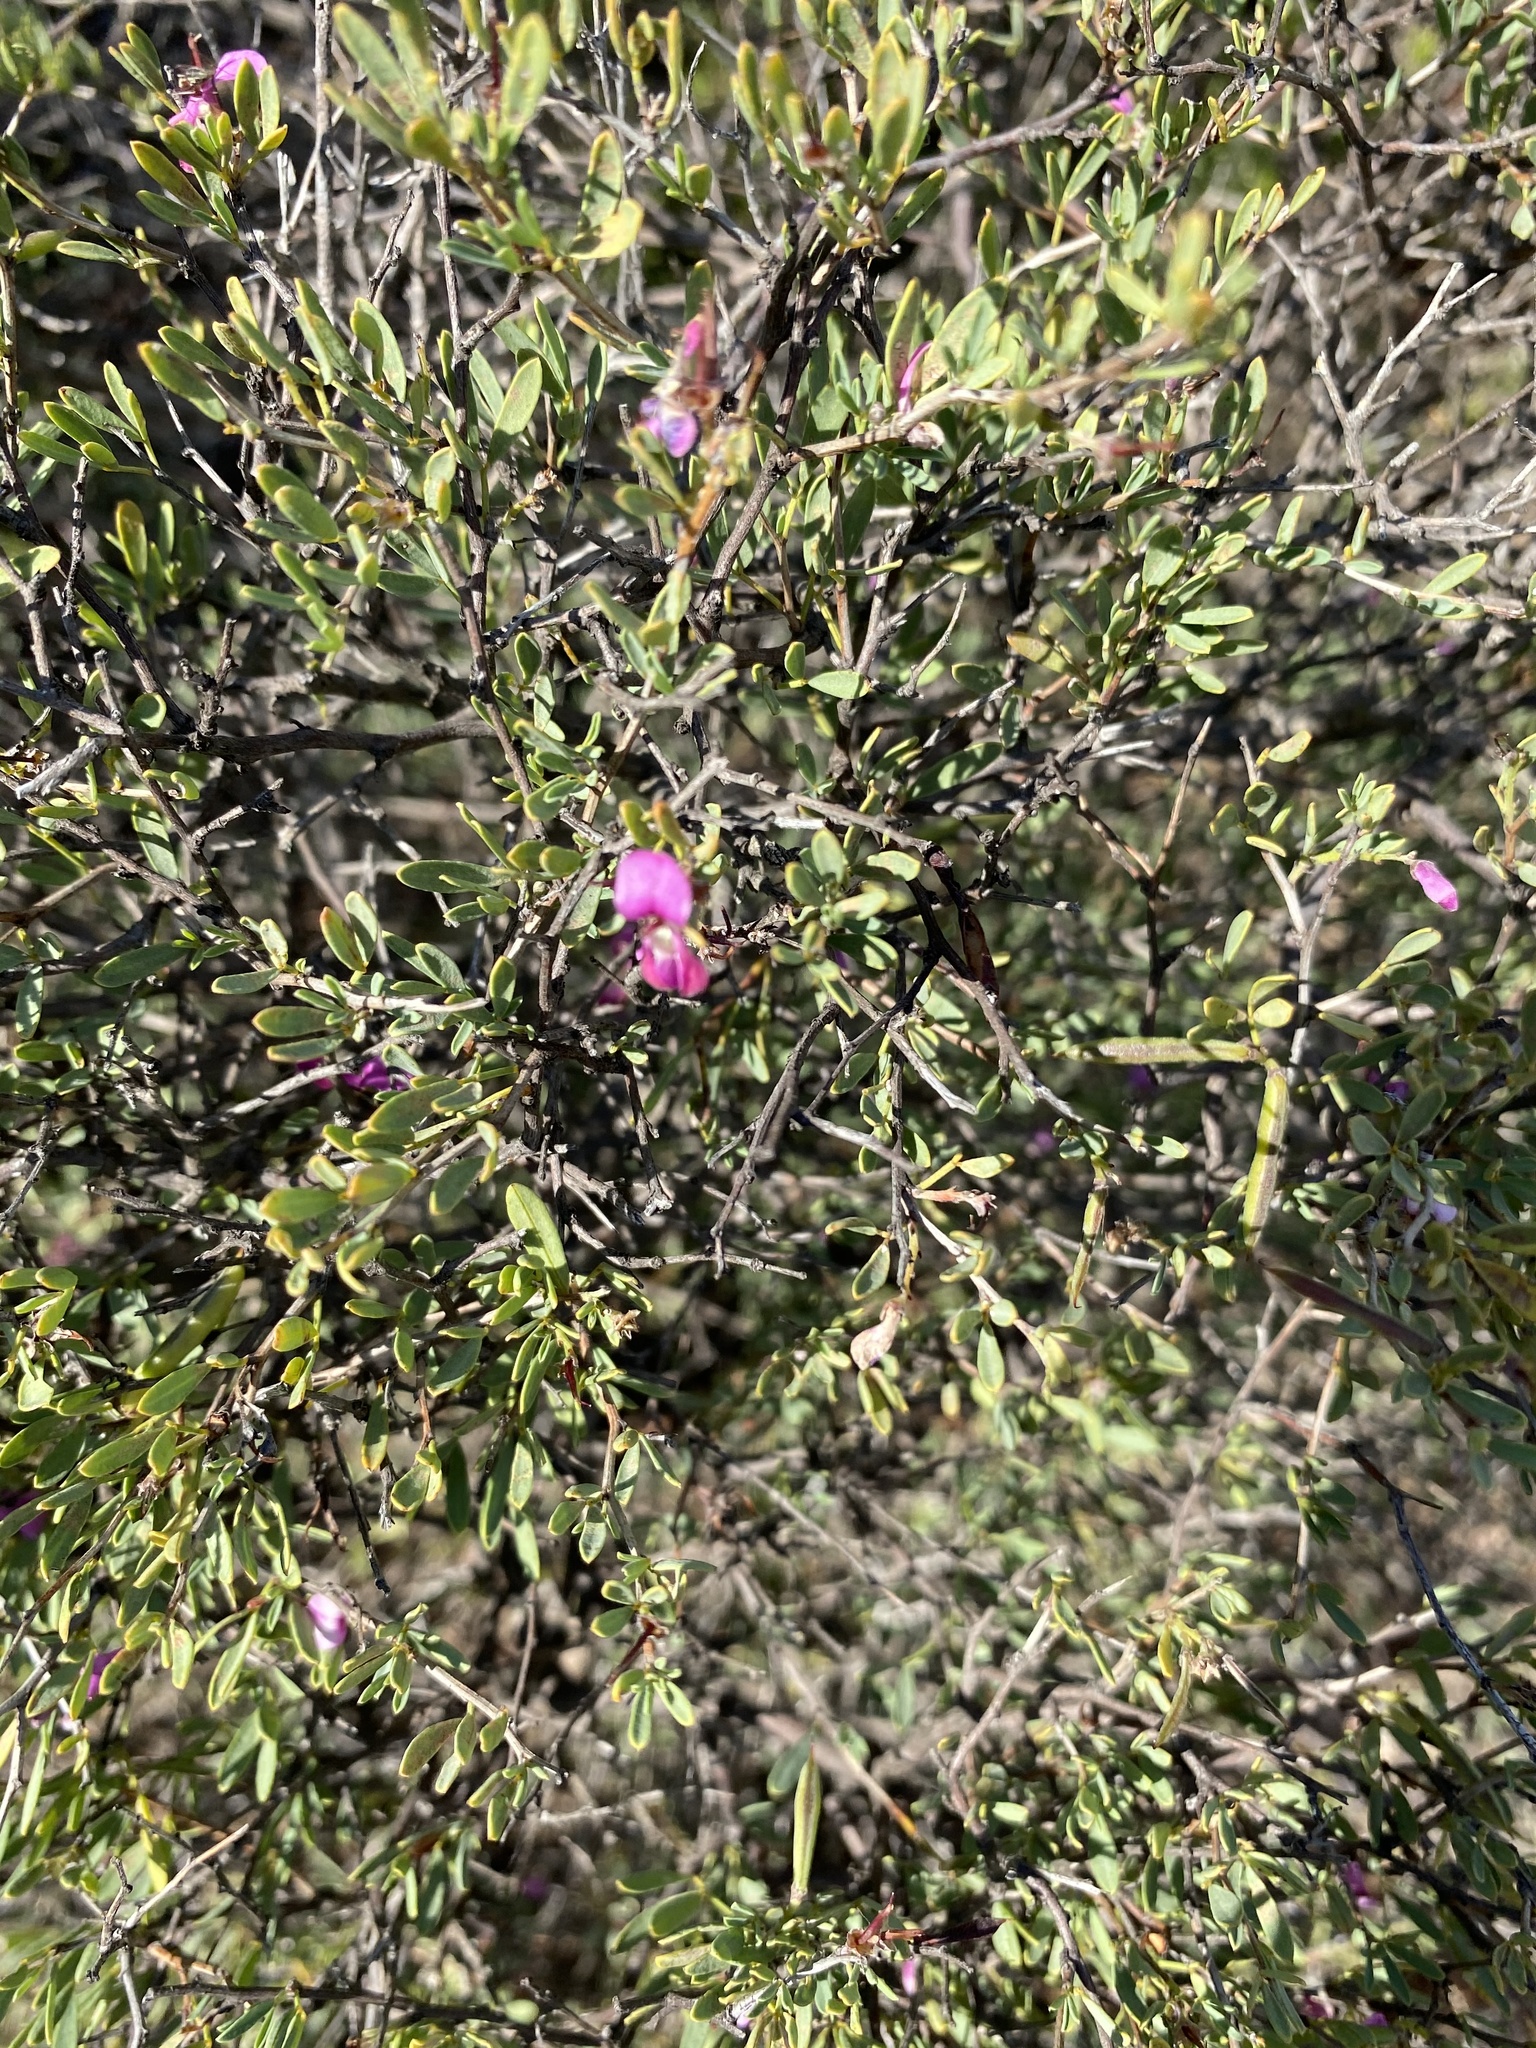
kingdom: Plantae
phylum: Tracheophyta
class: Magnoliopsida
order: Fabales
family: Fabaceae
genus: Indigofera
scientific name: Indigofera denudata
